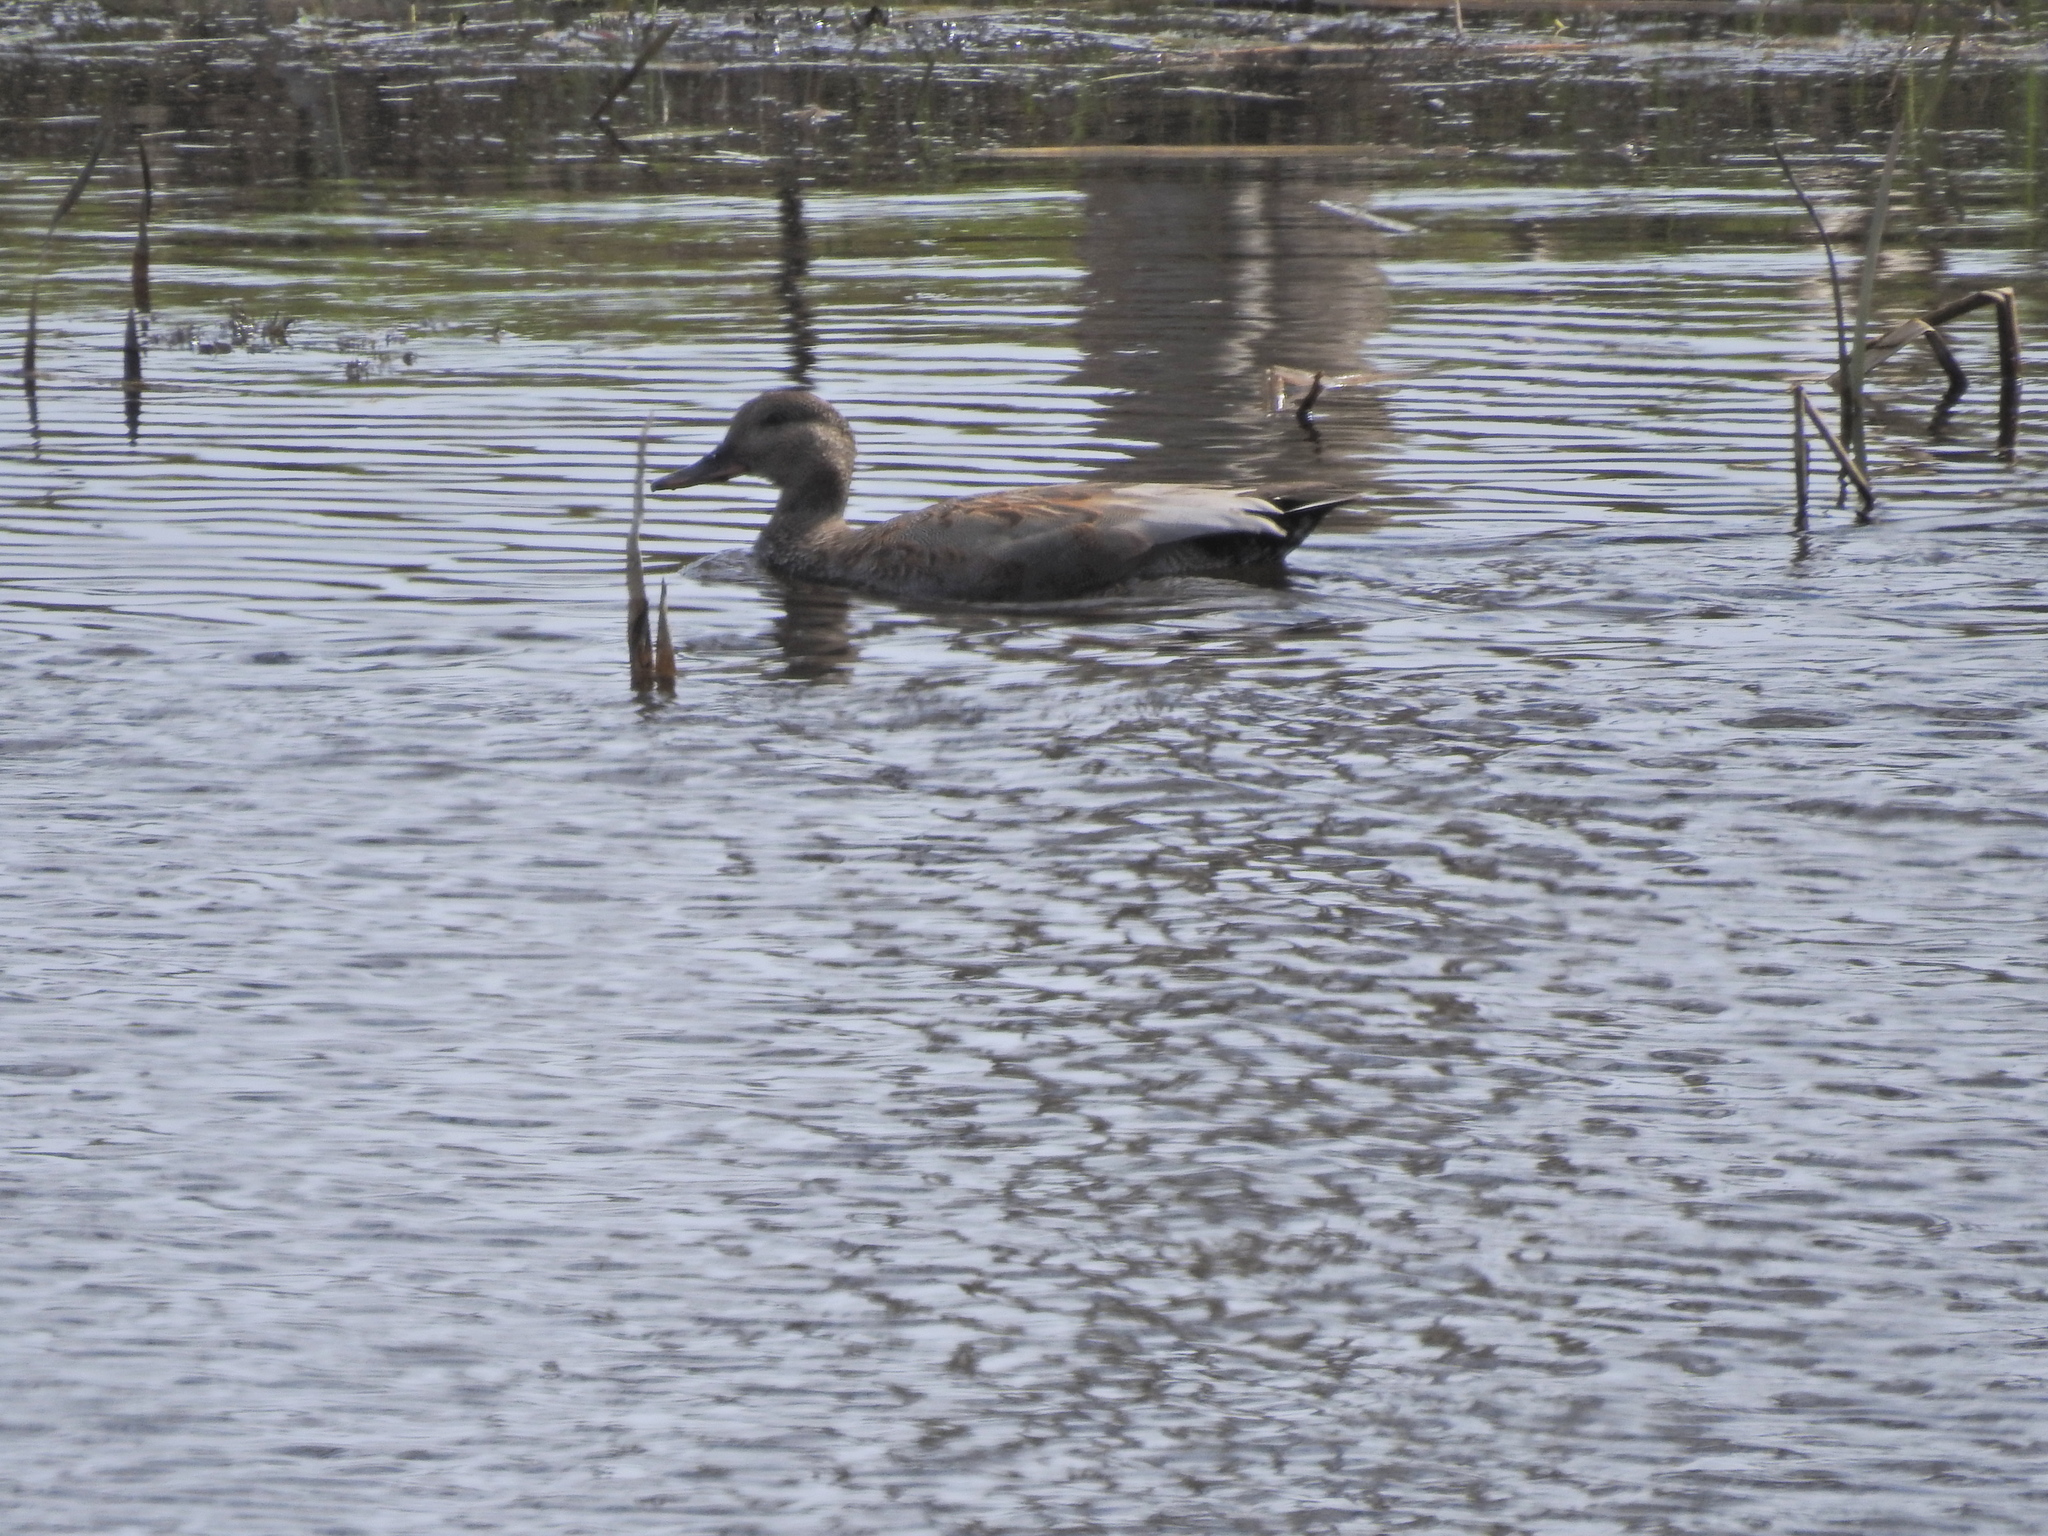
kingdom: Animalia
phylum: Chordata
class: Aves
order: Anseriformes
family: Anatidae
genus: Mareca
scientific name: Mareca strepera
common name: Gadwall
